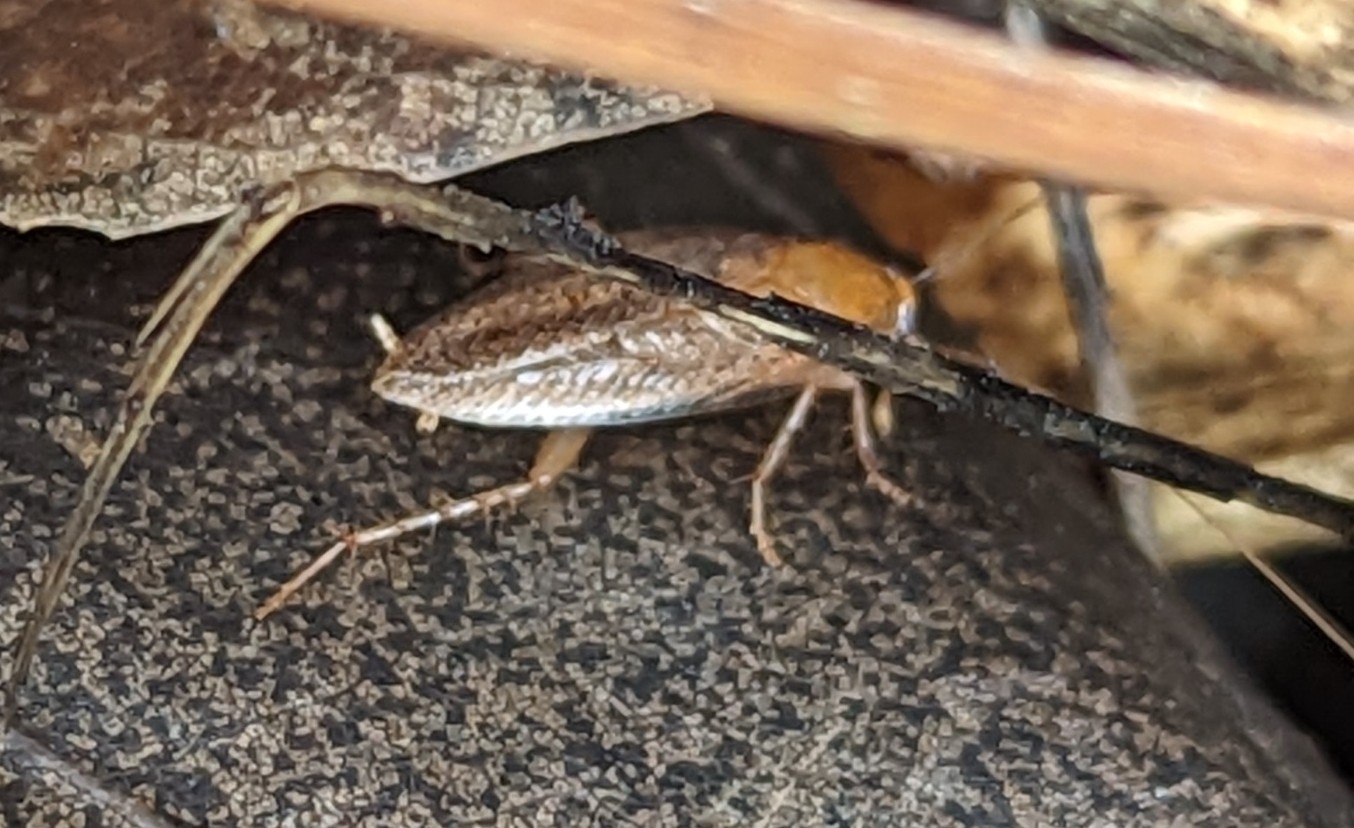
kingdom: Animalia
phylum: Arthropoda
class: Insecta
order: Blattodea
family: Ectobiidae
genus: Ectobius
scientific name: Ectobius pallidus
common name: Tawny cockroach
